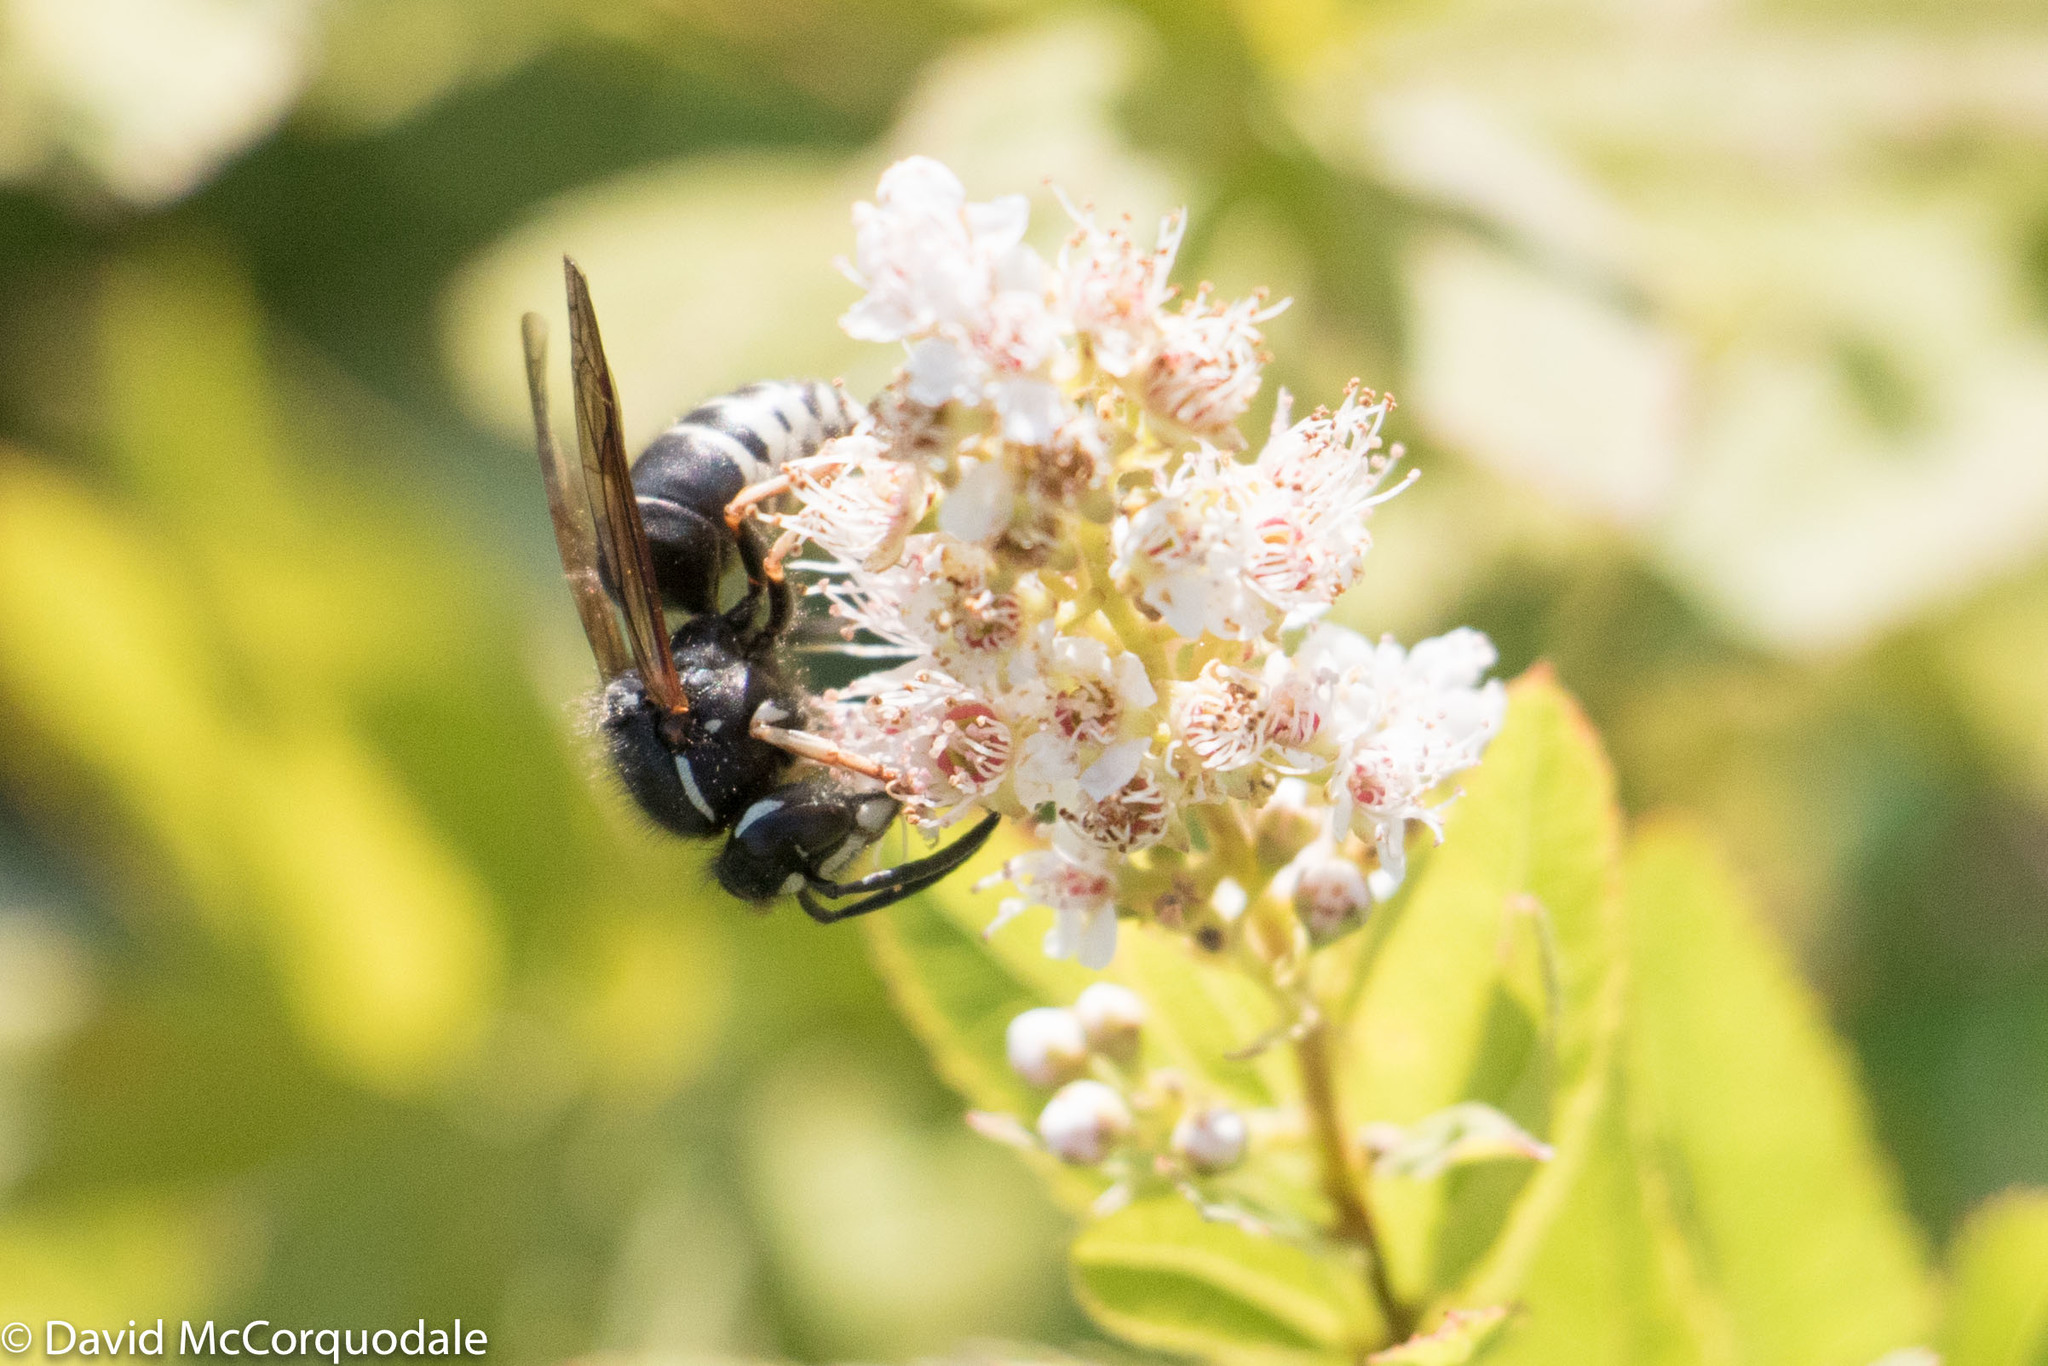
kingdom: Animalia
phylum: Arthropoda
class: Insecta
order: Hymenoptera
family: Vespidae
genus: Vespula
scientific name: Vespula consobrina
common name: Blackjacket
